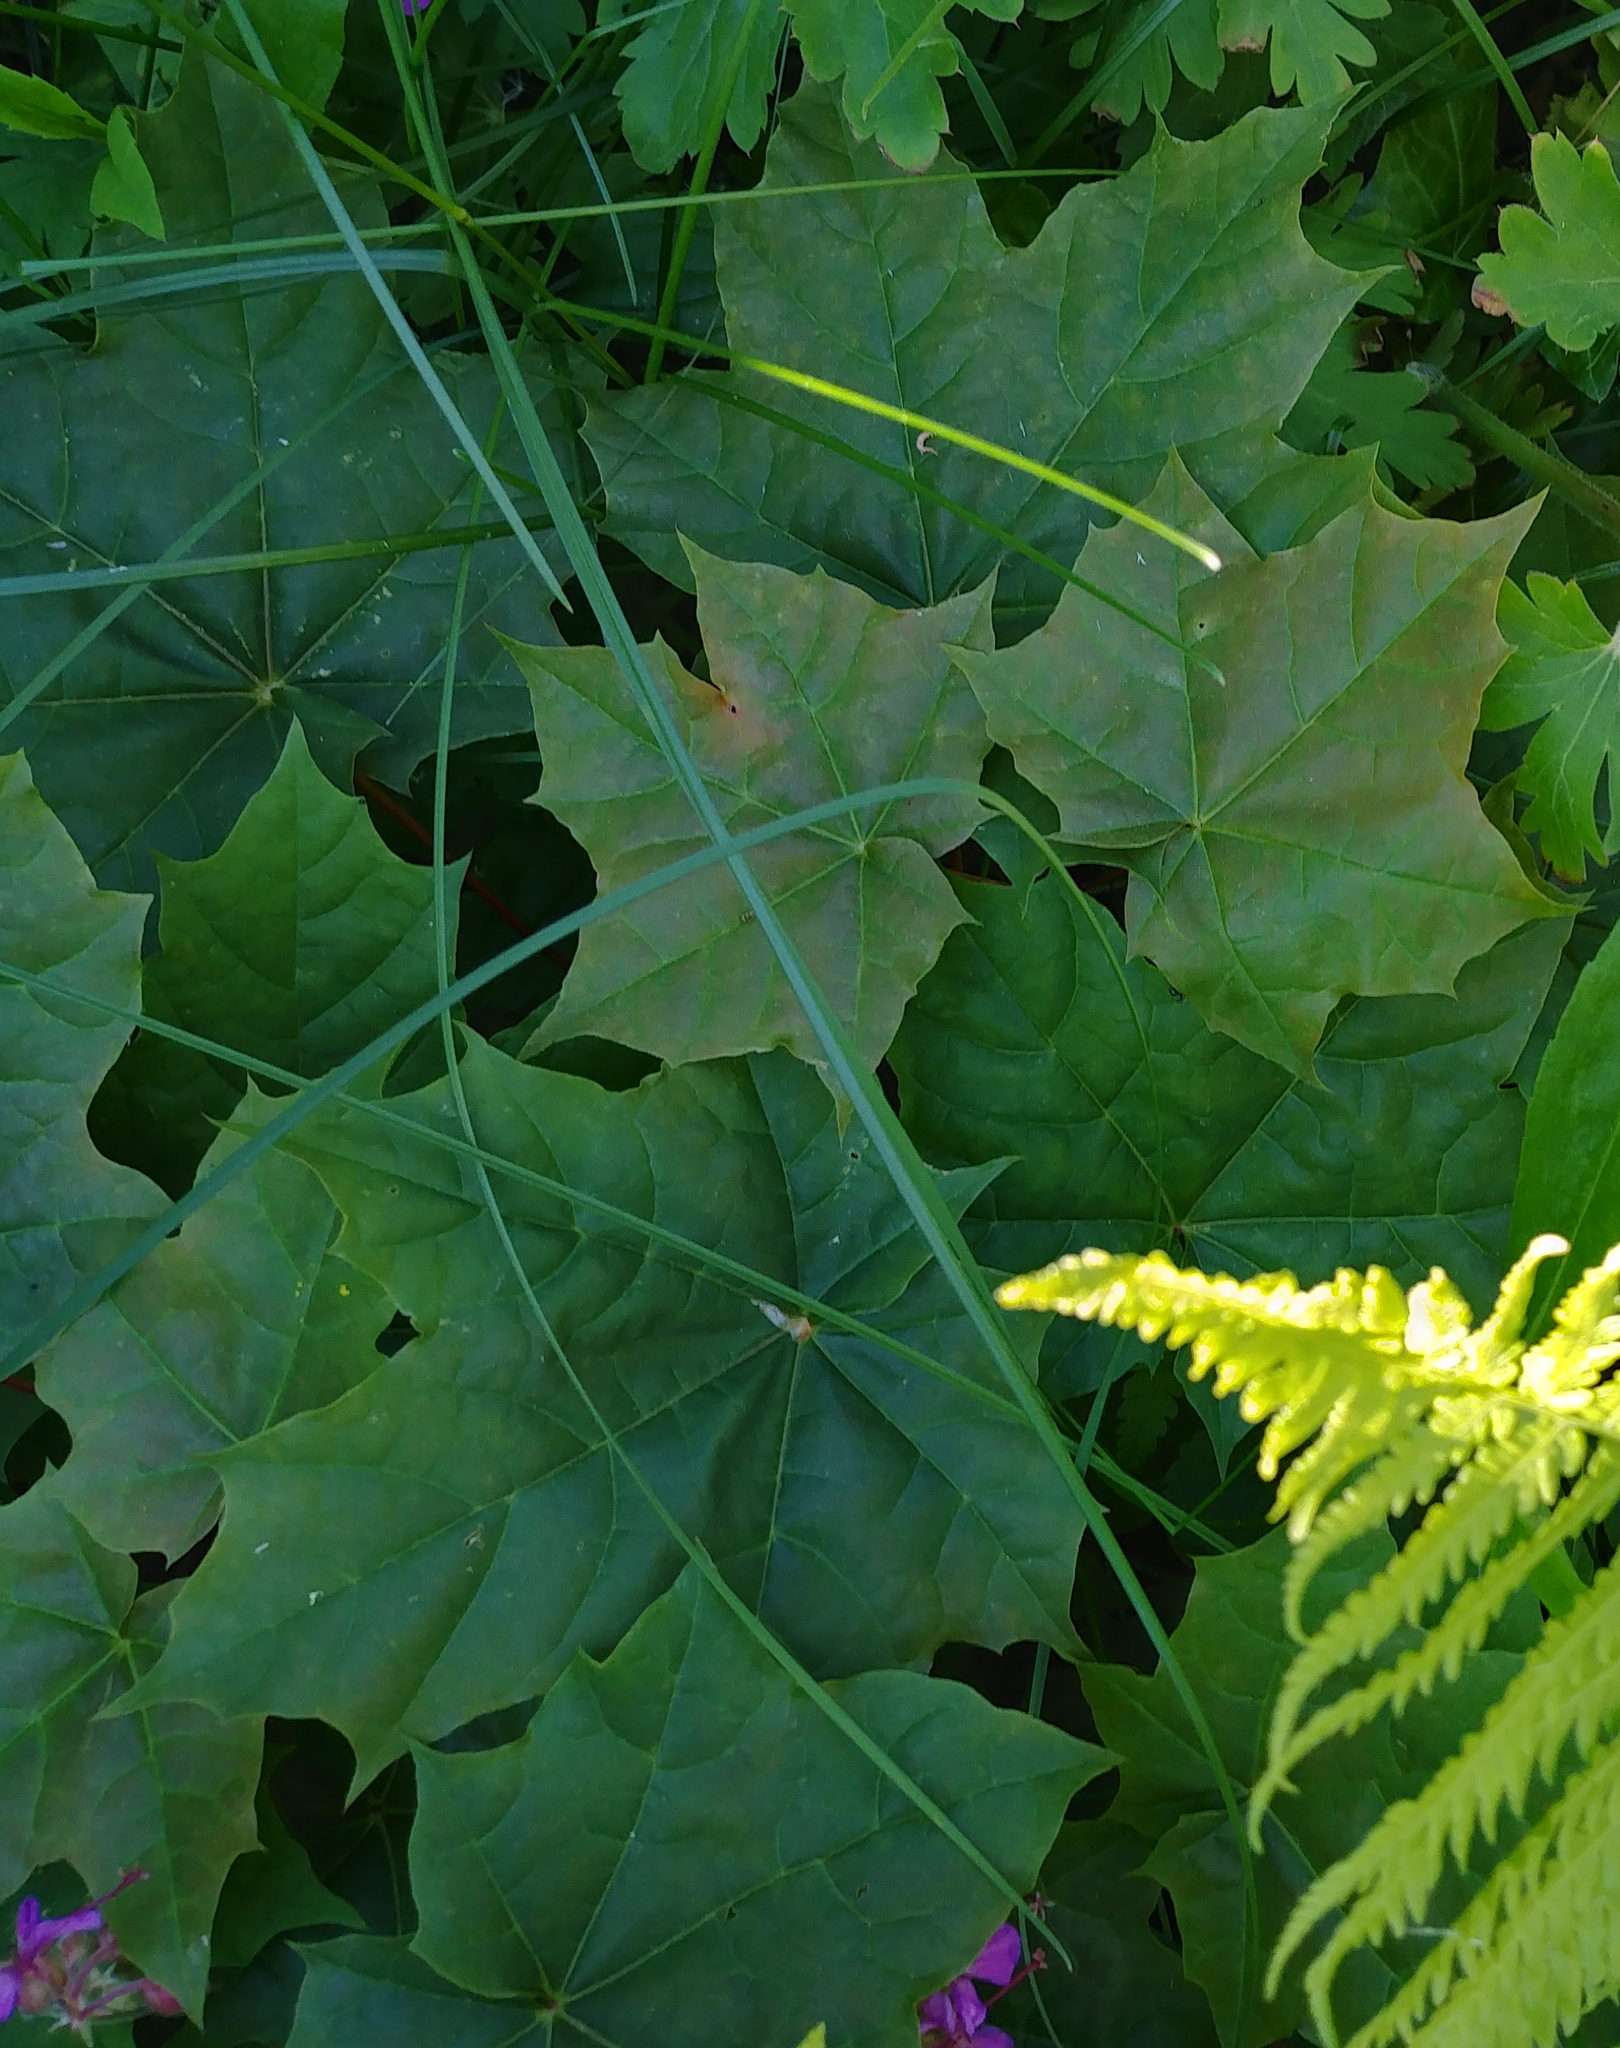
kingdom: Plantae
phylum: Tracheophyta
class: Magnoliopsida
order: Sapindales
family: Sapindaceae
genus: Acer
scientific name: Acer platanoides
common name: Norway maple
